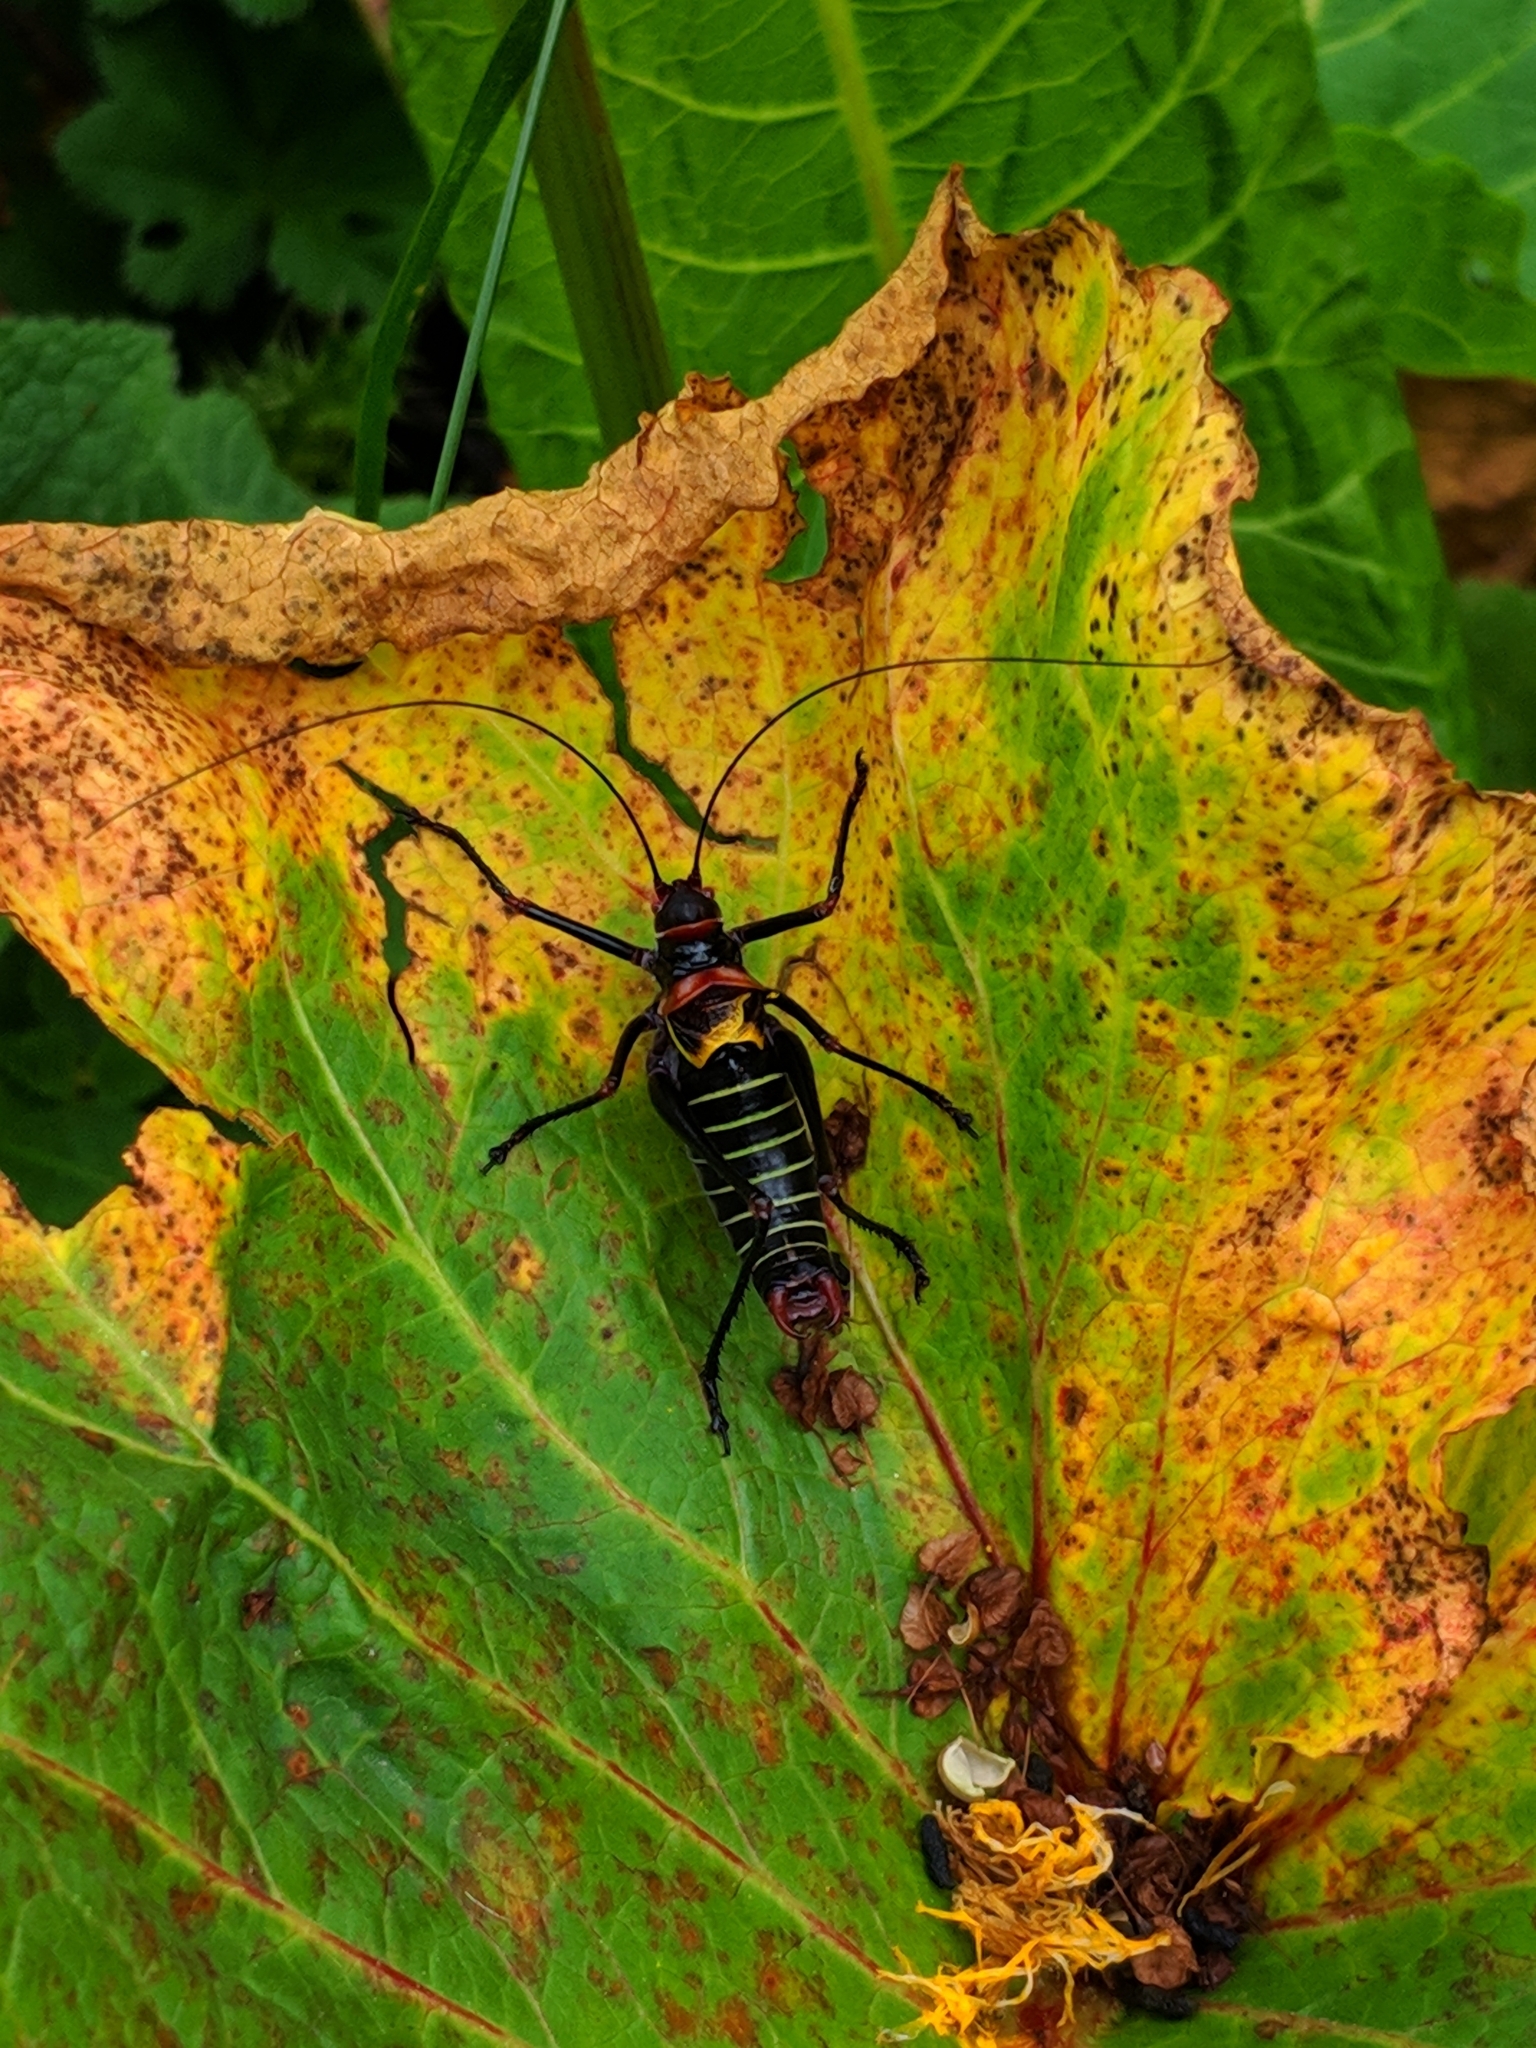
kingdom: Animalia
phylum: Arthropoda
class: Insecta
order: Orthoptera
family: Tettigoniidae
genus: Phonochorion
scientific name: Phonochorion satunini
